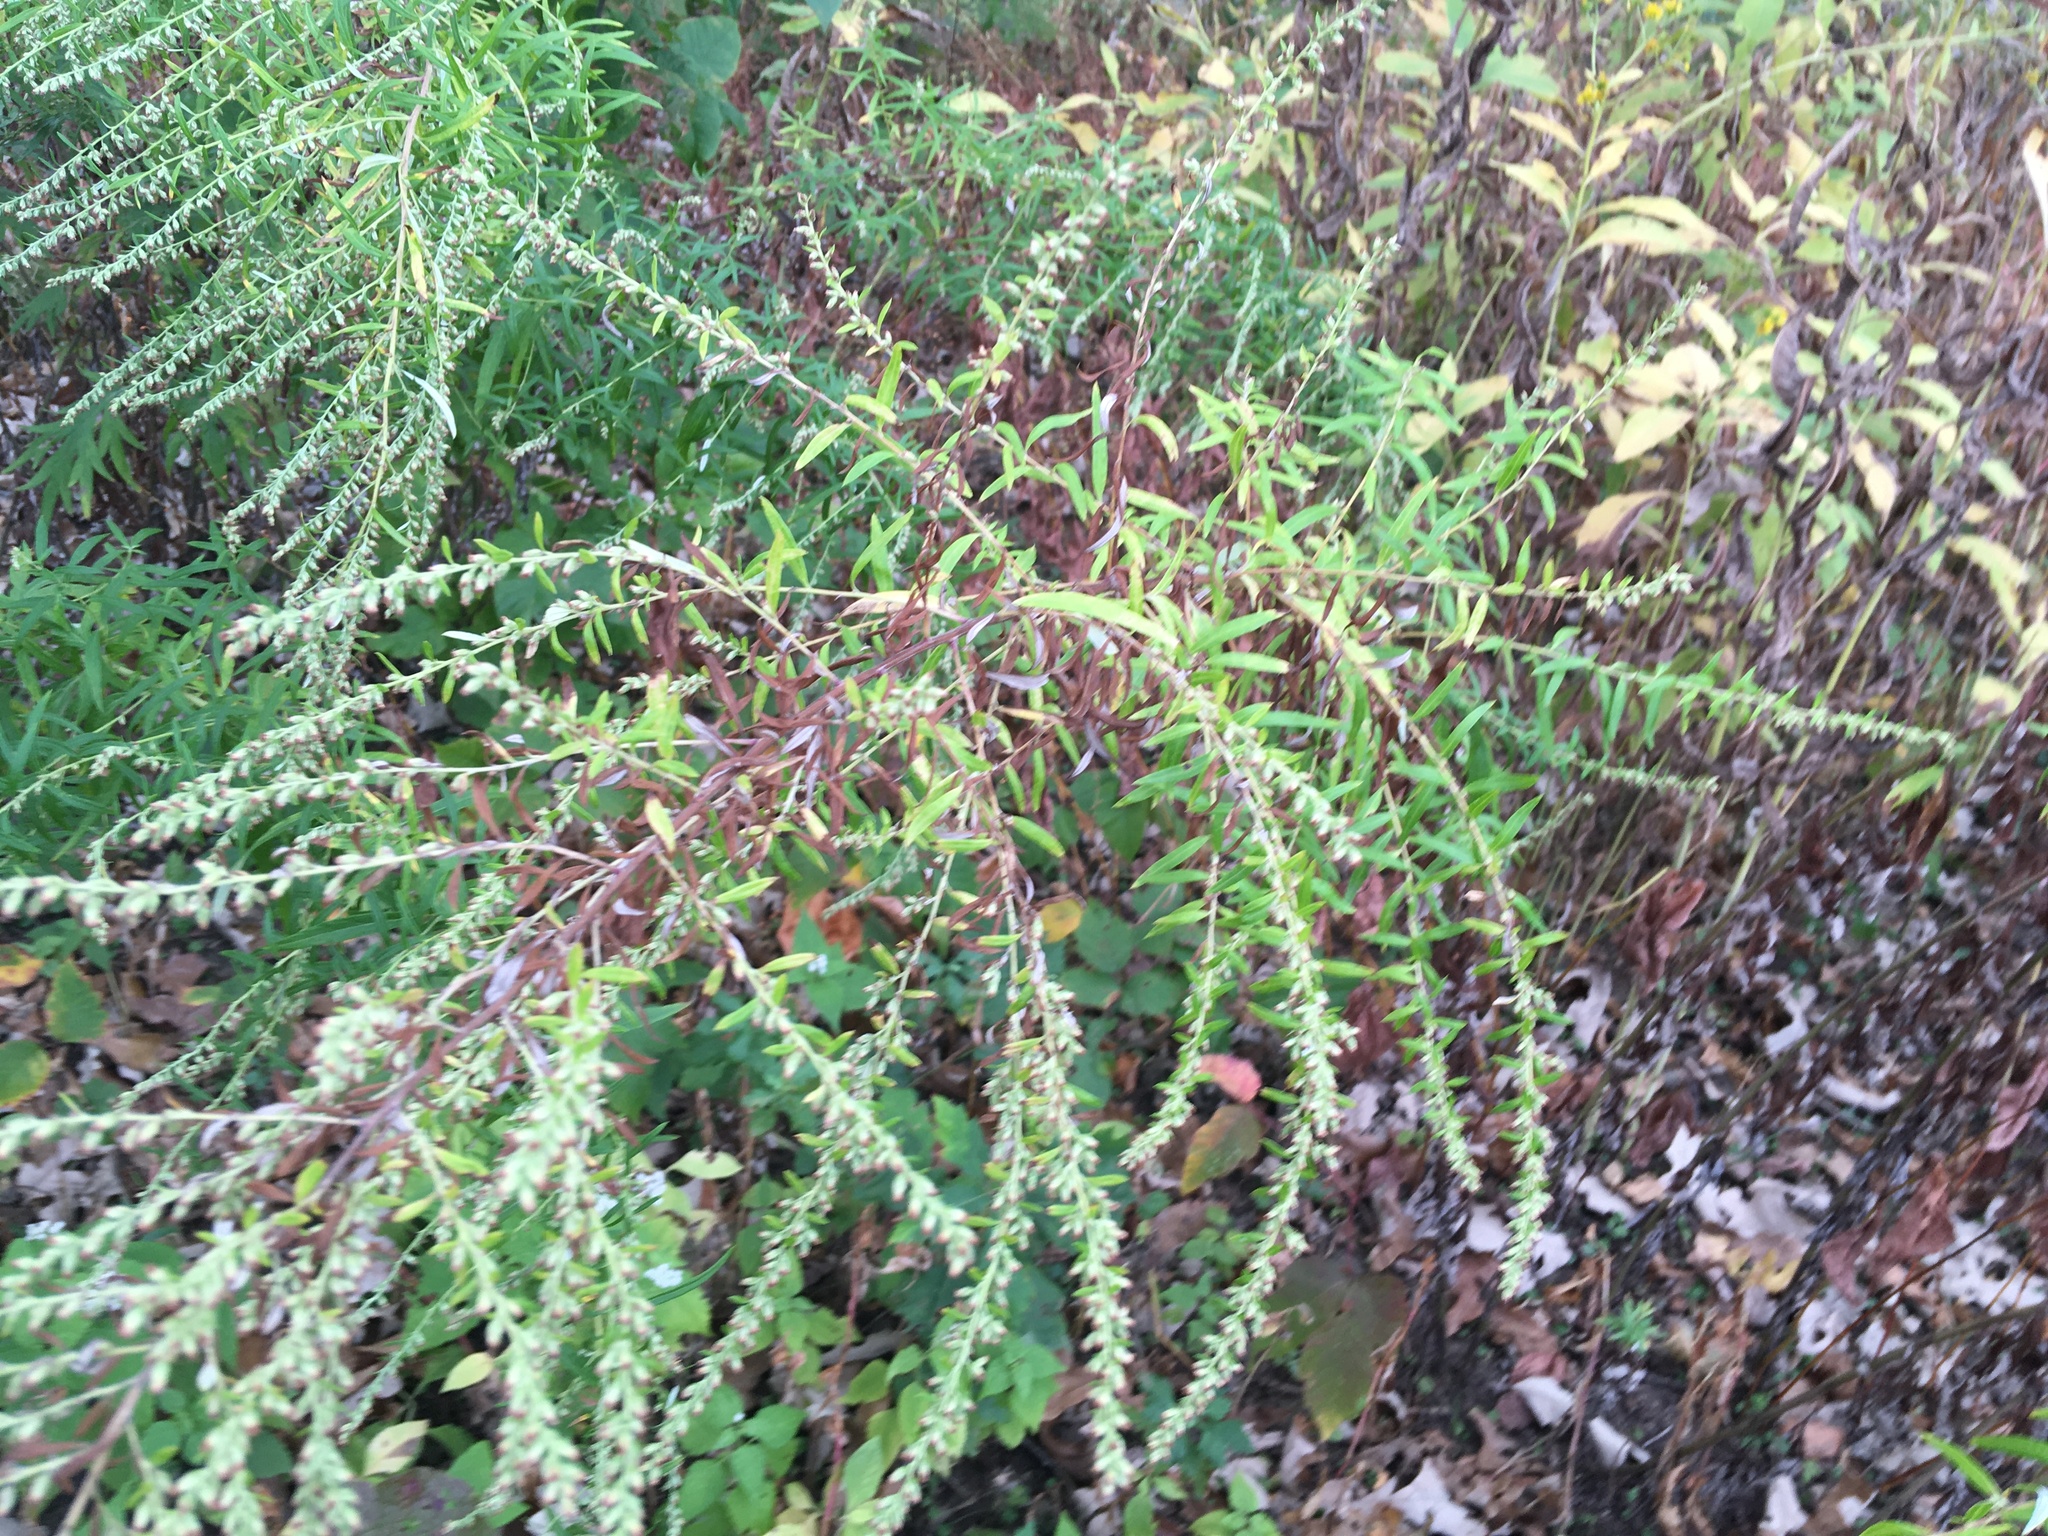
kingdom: Plantae
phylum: Tracheophyta
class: Magnoliopsida
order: Asterales
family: Asteraceae
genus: Artemisia
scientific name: Artemisia vulgaris
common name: Mugwort
